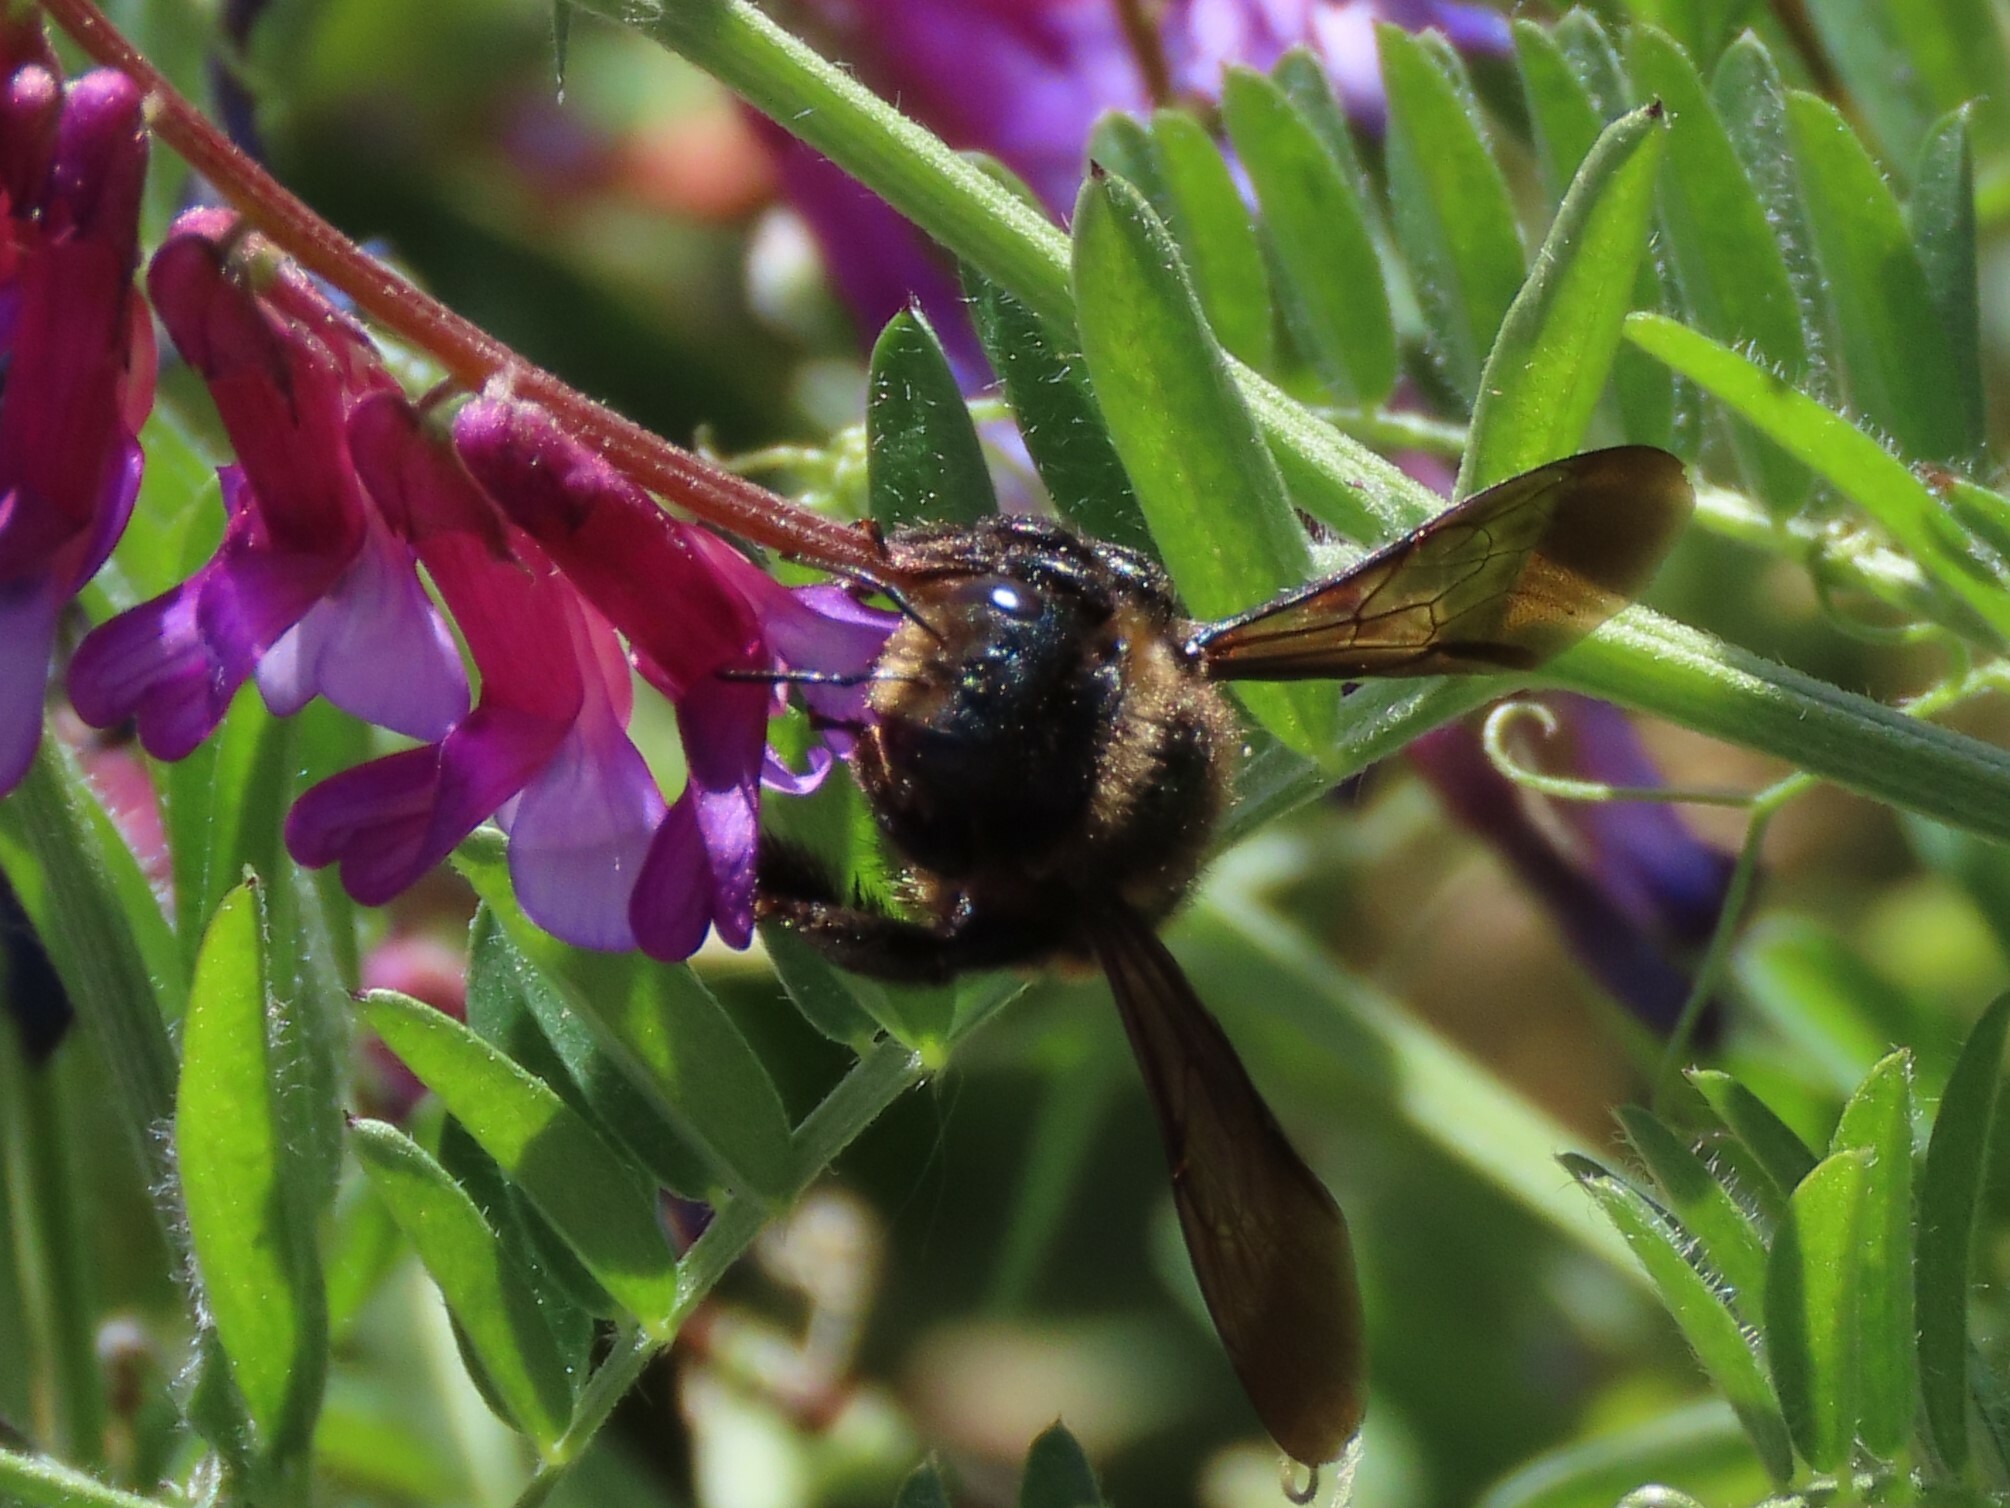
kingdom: Animalia
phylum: Arthropoda
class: Insecta
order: Hymenoptera
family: Apidae
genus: Xylocopa
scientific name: Xylocopa iris
